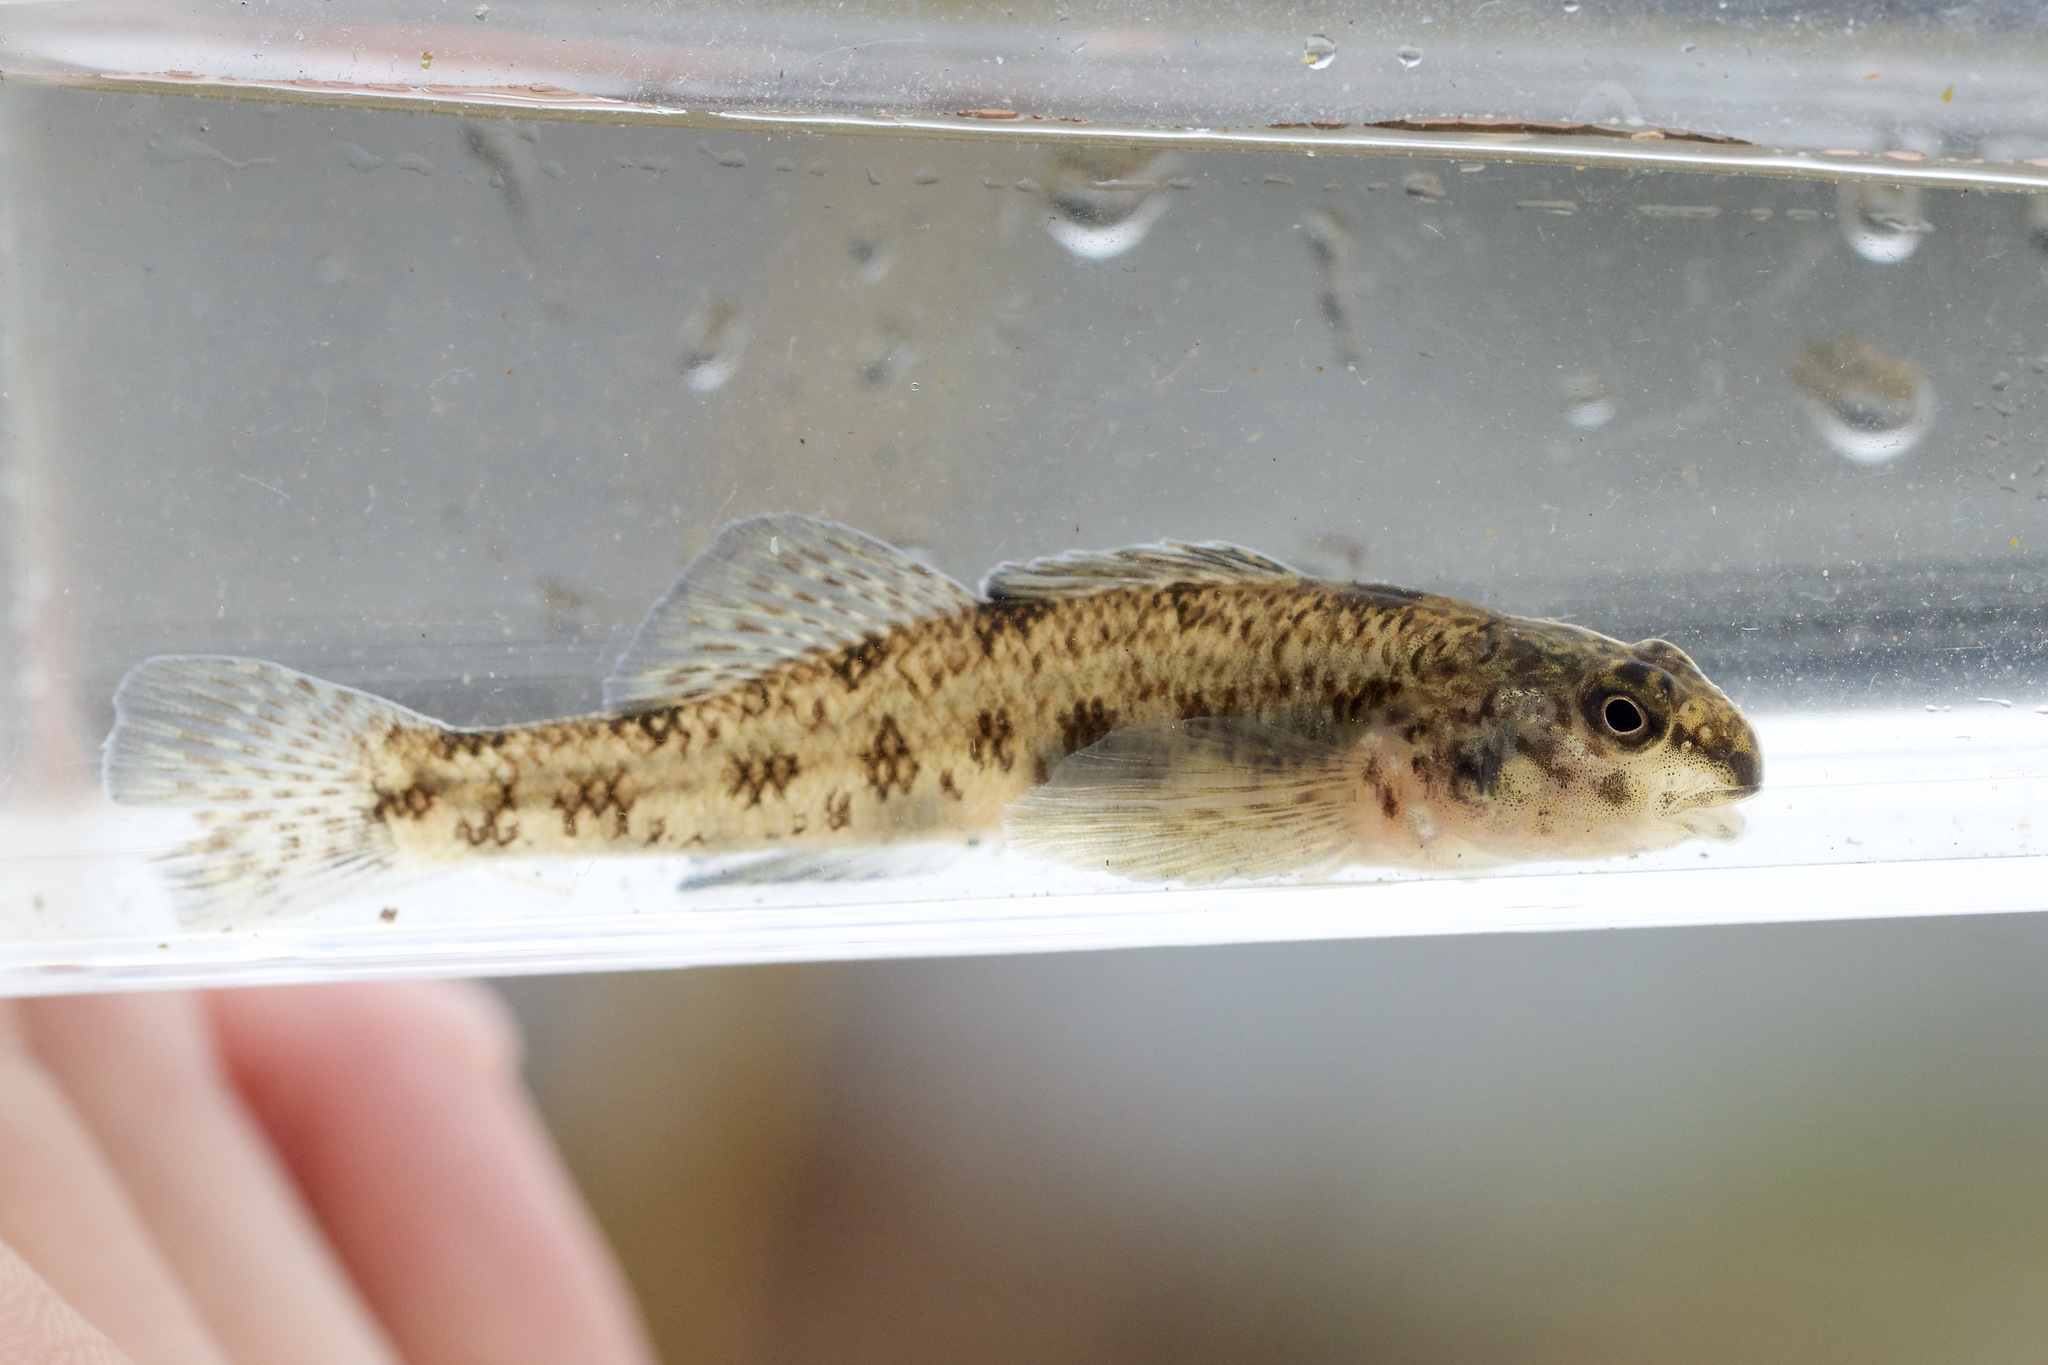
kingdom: Animalia
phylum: Chordata
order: Perciformes
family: Percidae
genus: Etheostoma
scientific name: Etheostoma nigrum
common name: Johnny darter
